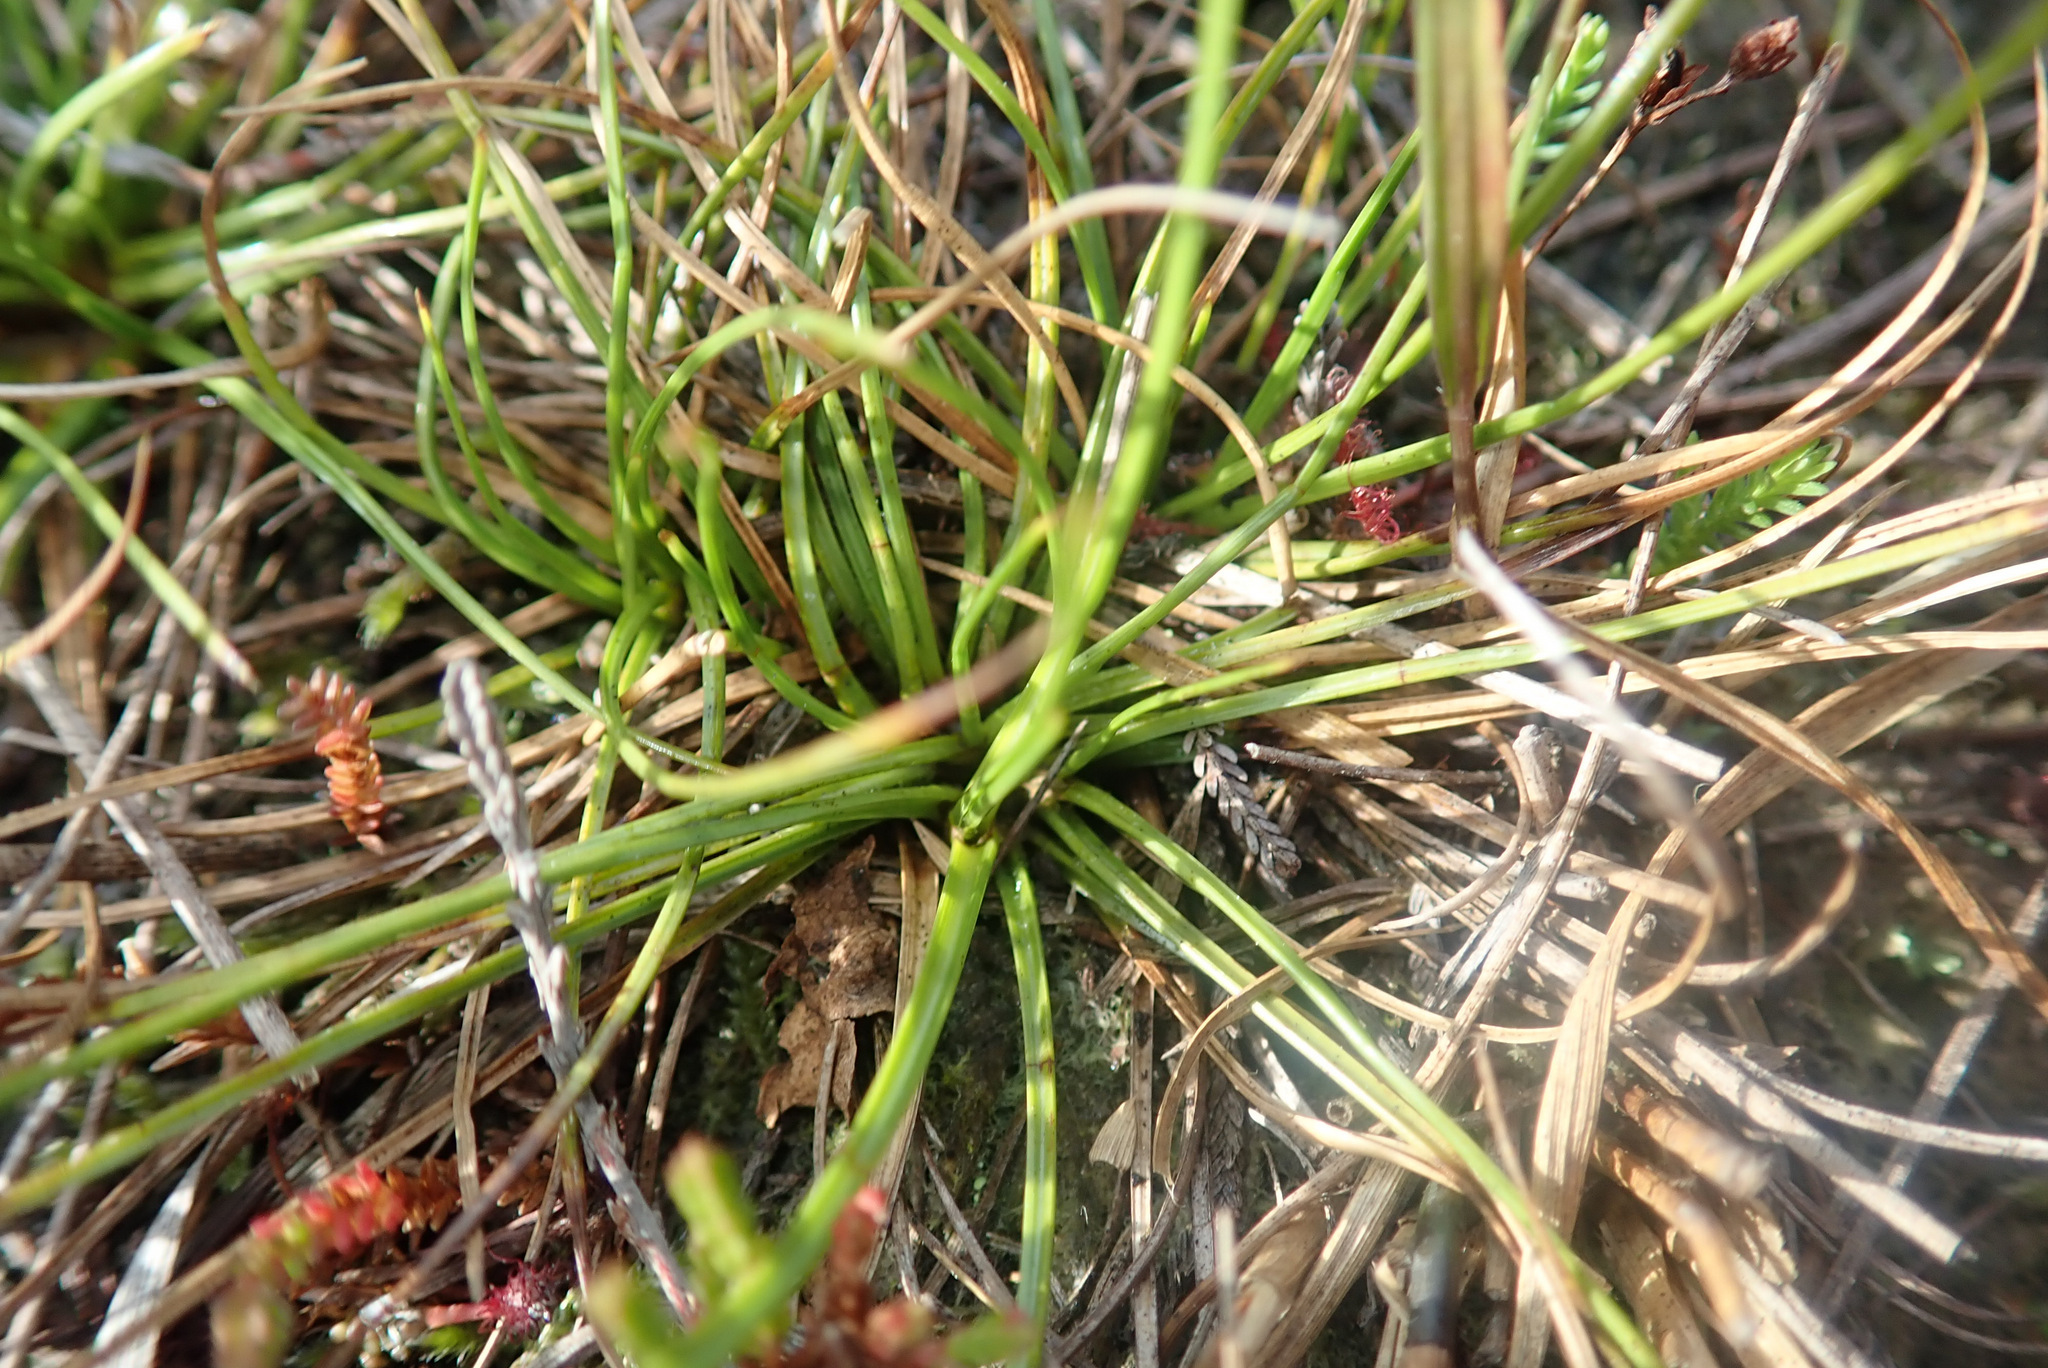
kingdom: Plantae
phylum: Tracheophyta
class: Liliopsida
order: Poales
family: Juncaceae
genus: Juncus
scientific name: Juncus squarrosus
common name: Heath rush
